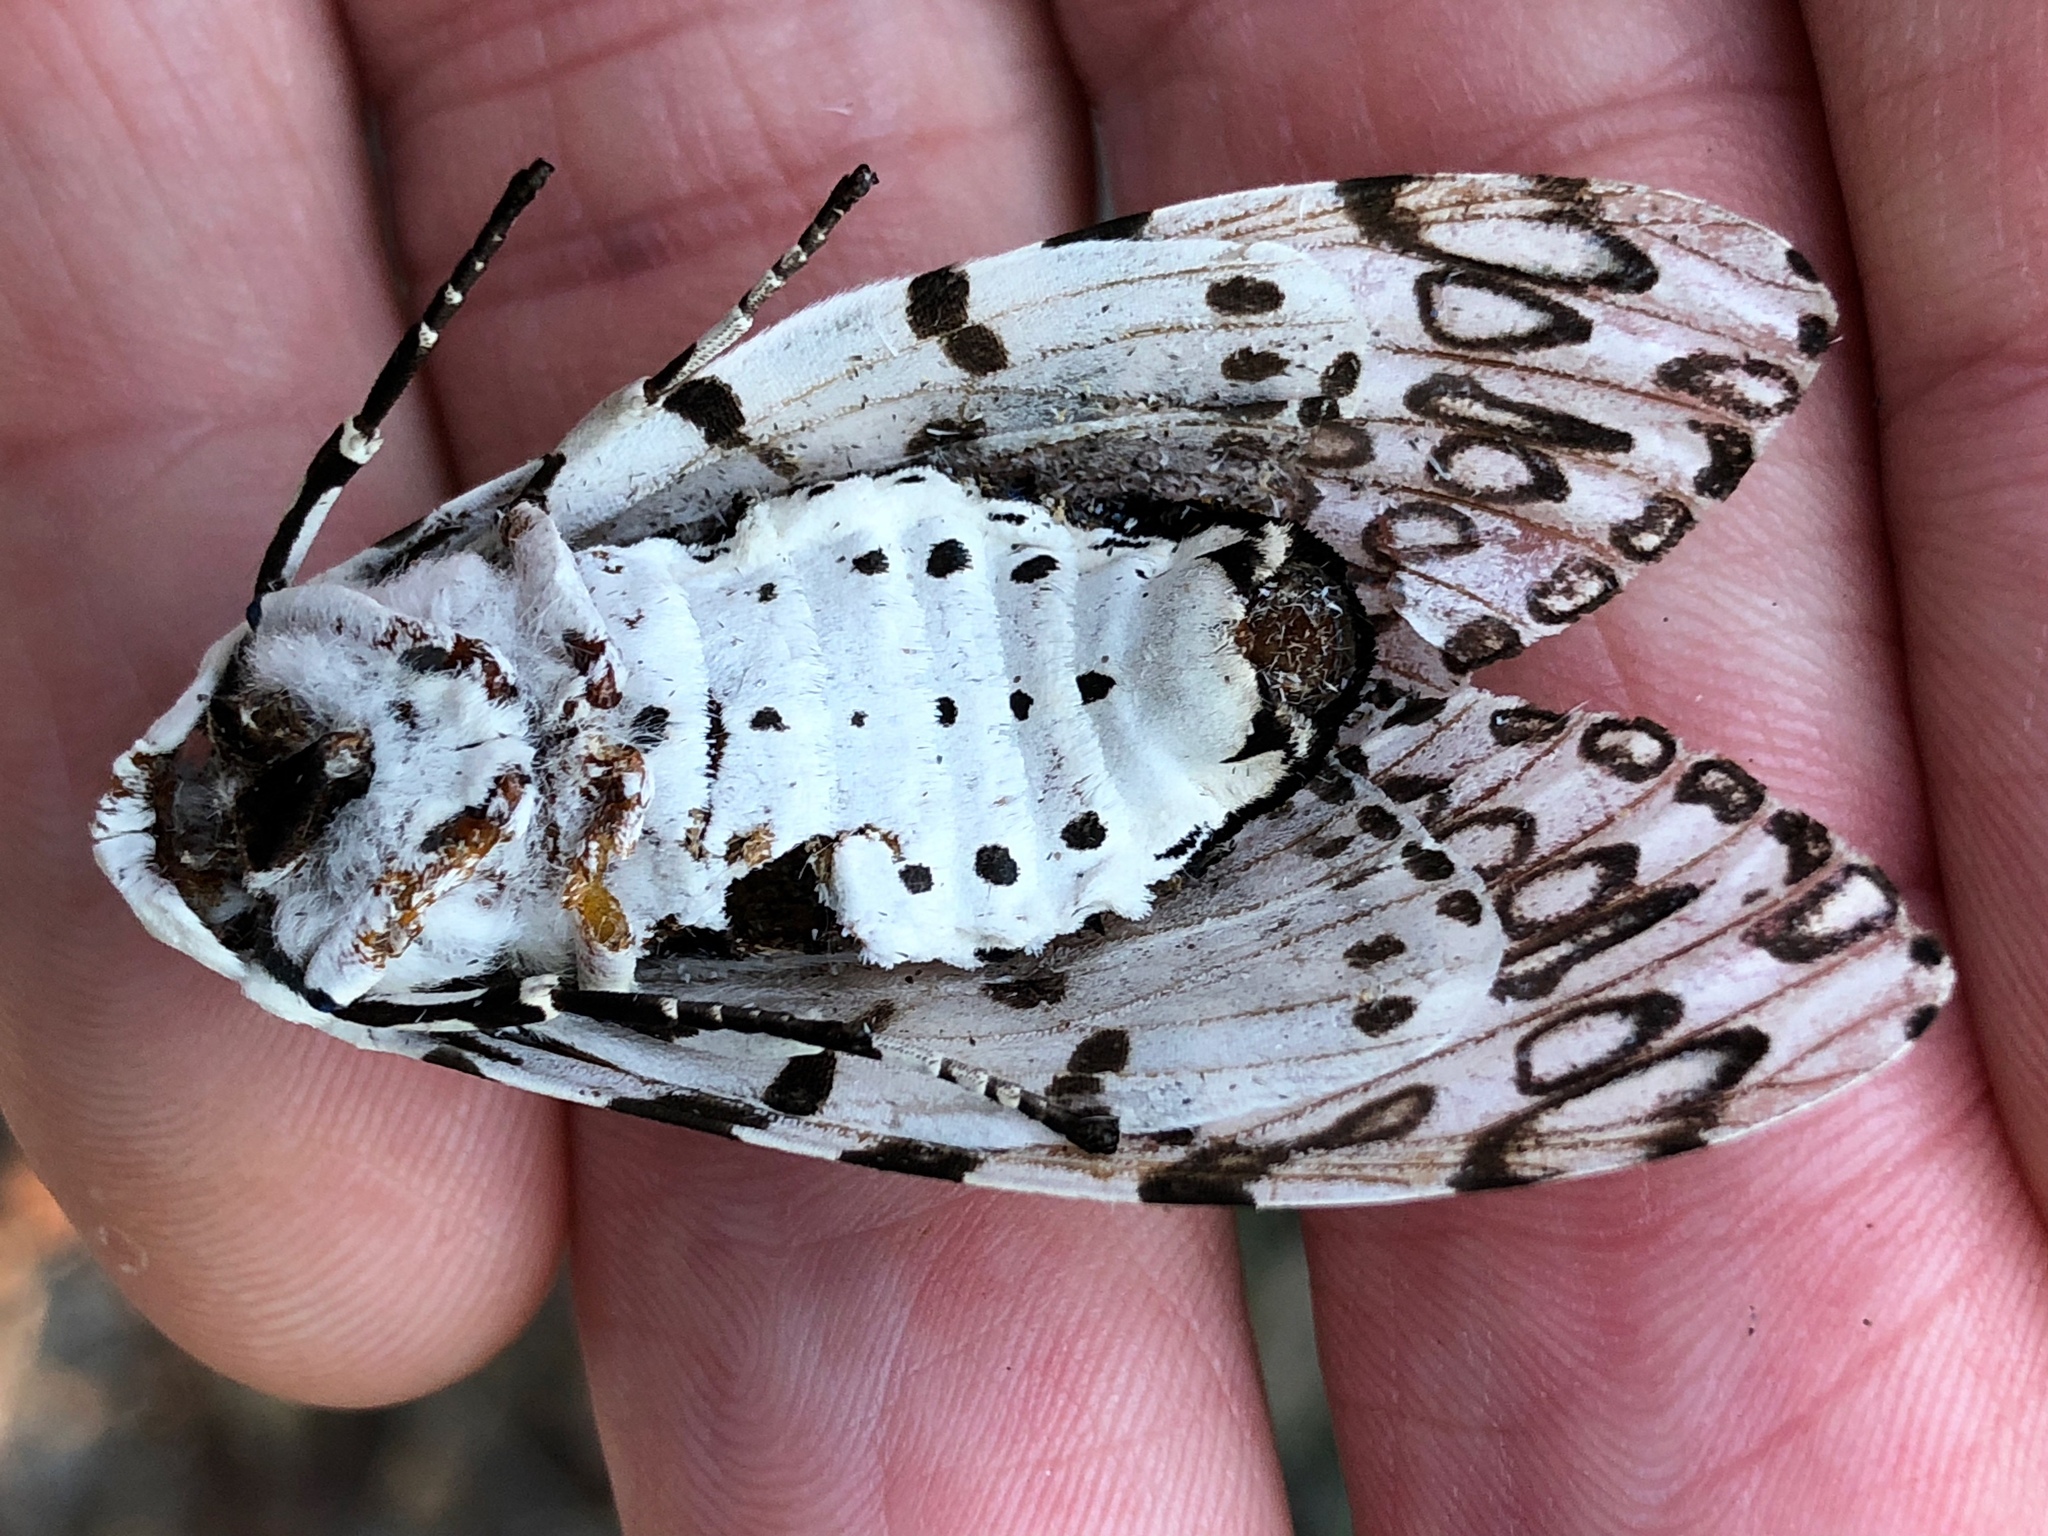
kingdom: Animalia
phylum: Arthropoda
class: Insecta
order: Lepidoptera
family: Erebidae
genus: Hypercompe
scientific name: Hypercompe scribonia
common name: Giant leopard moth
